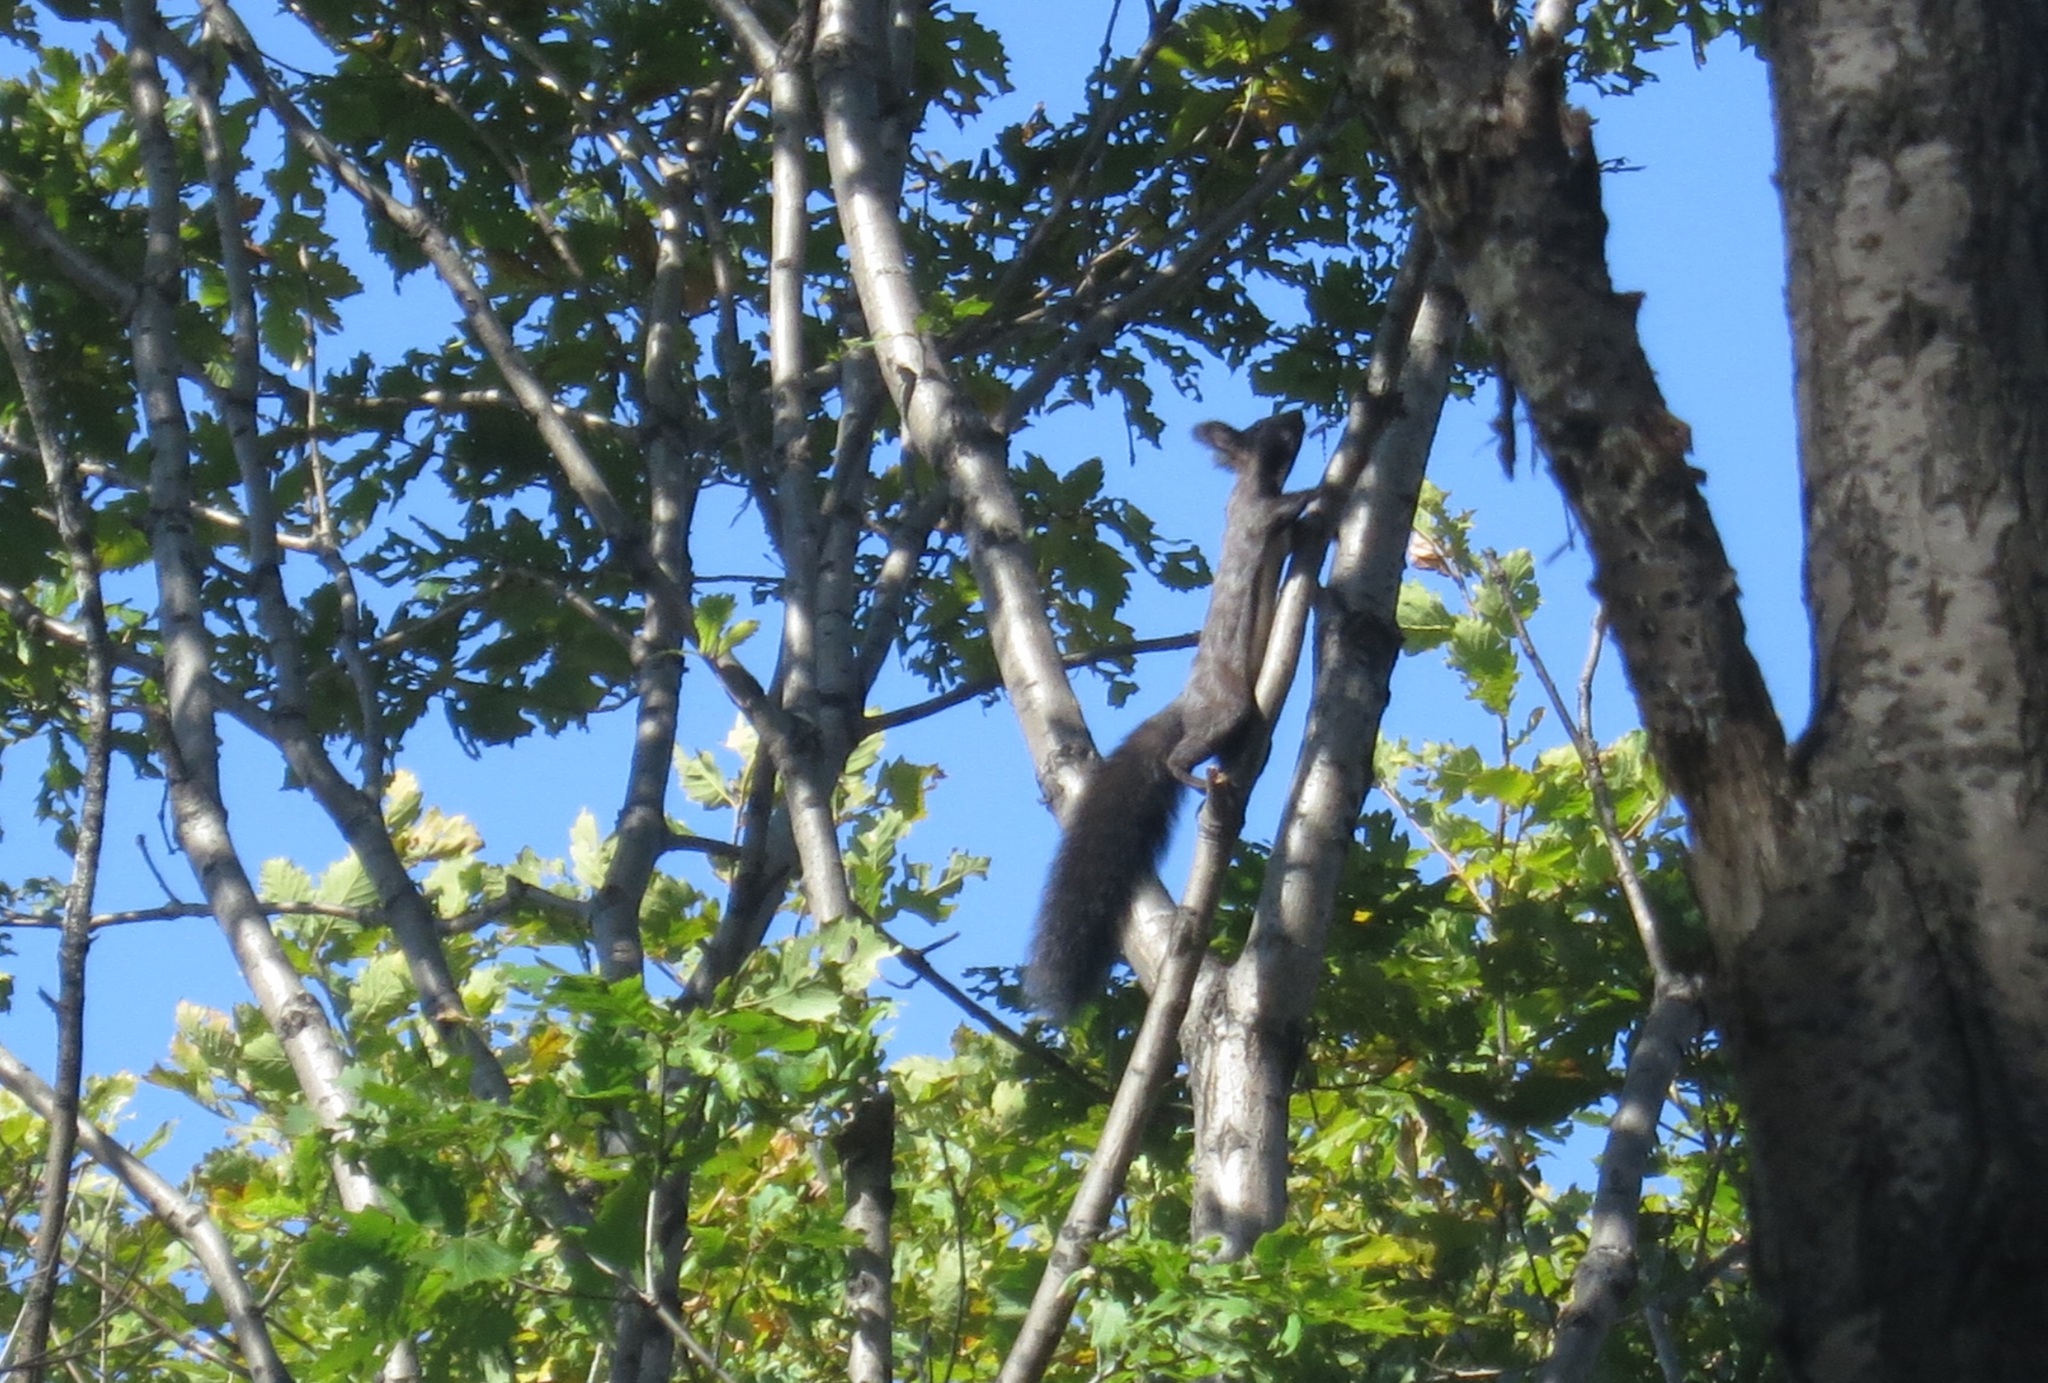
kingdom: Animalia
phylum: Chordata
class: Mammalia
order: Rodentia
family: Sciuridae
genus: Sciurus
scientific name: Sciurus vulgaris
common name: Eurasian red squirrel
